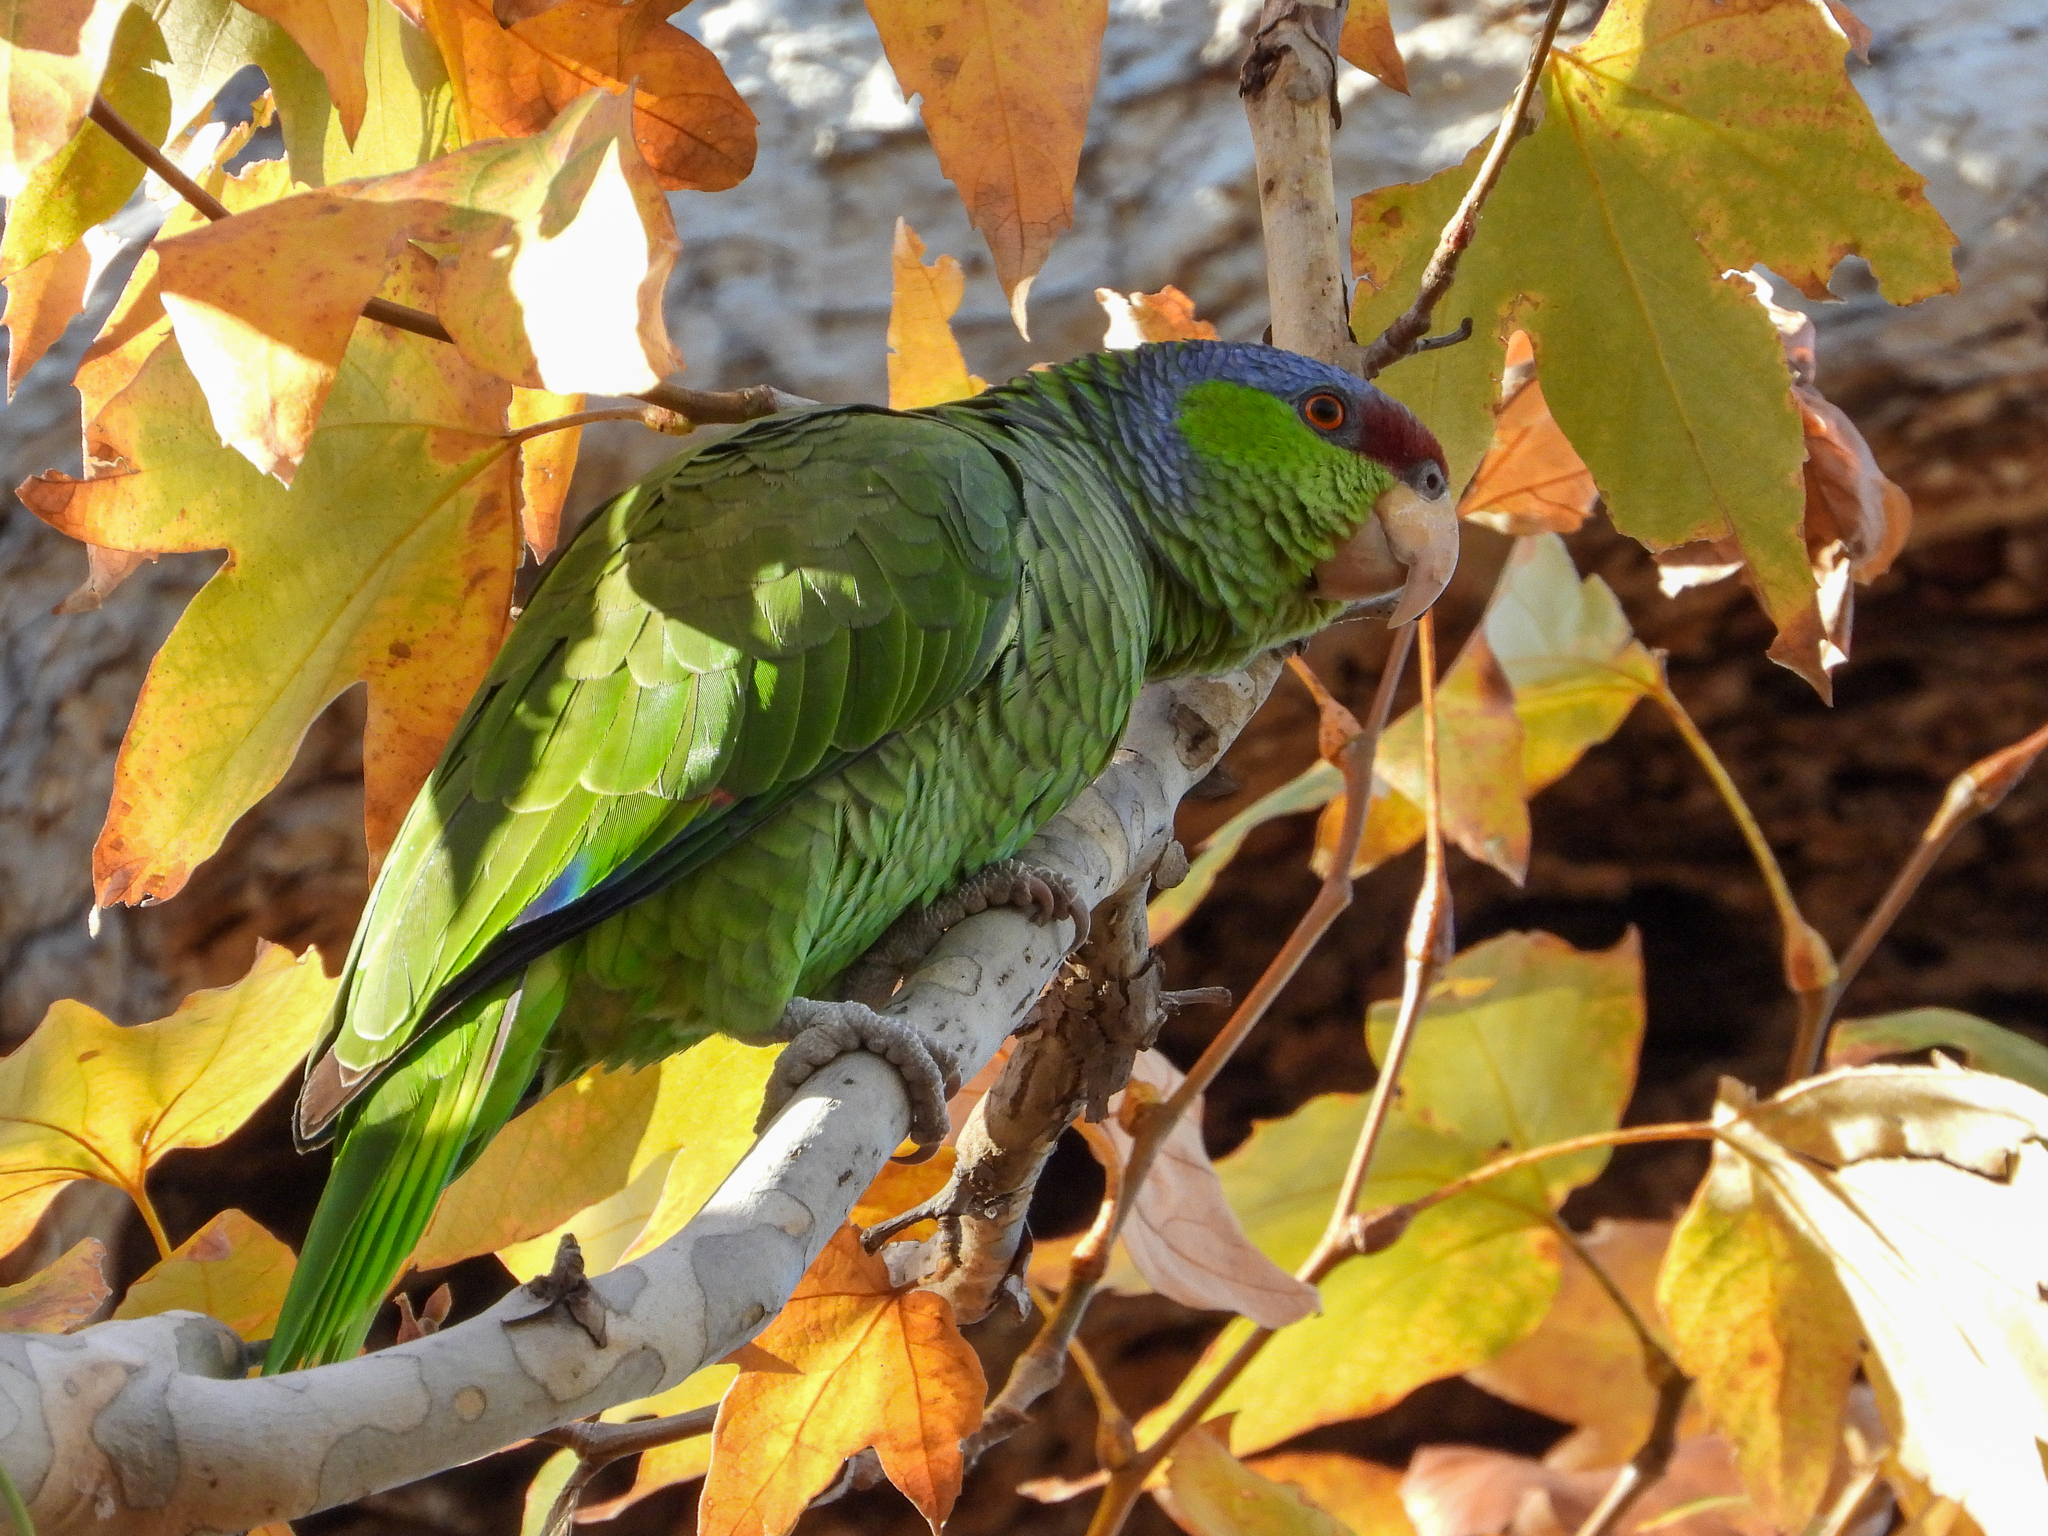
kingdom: Animalia
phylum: Chordata
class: Aves
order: Psittaciformes
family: Psittacidae
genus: Amazona
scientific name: Amazona finschi
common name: Lilac-crowned amazon
